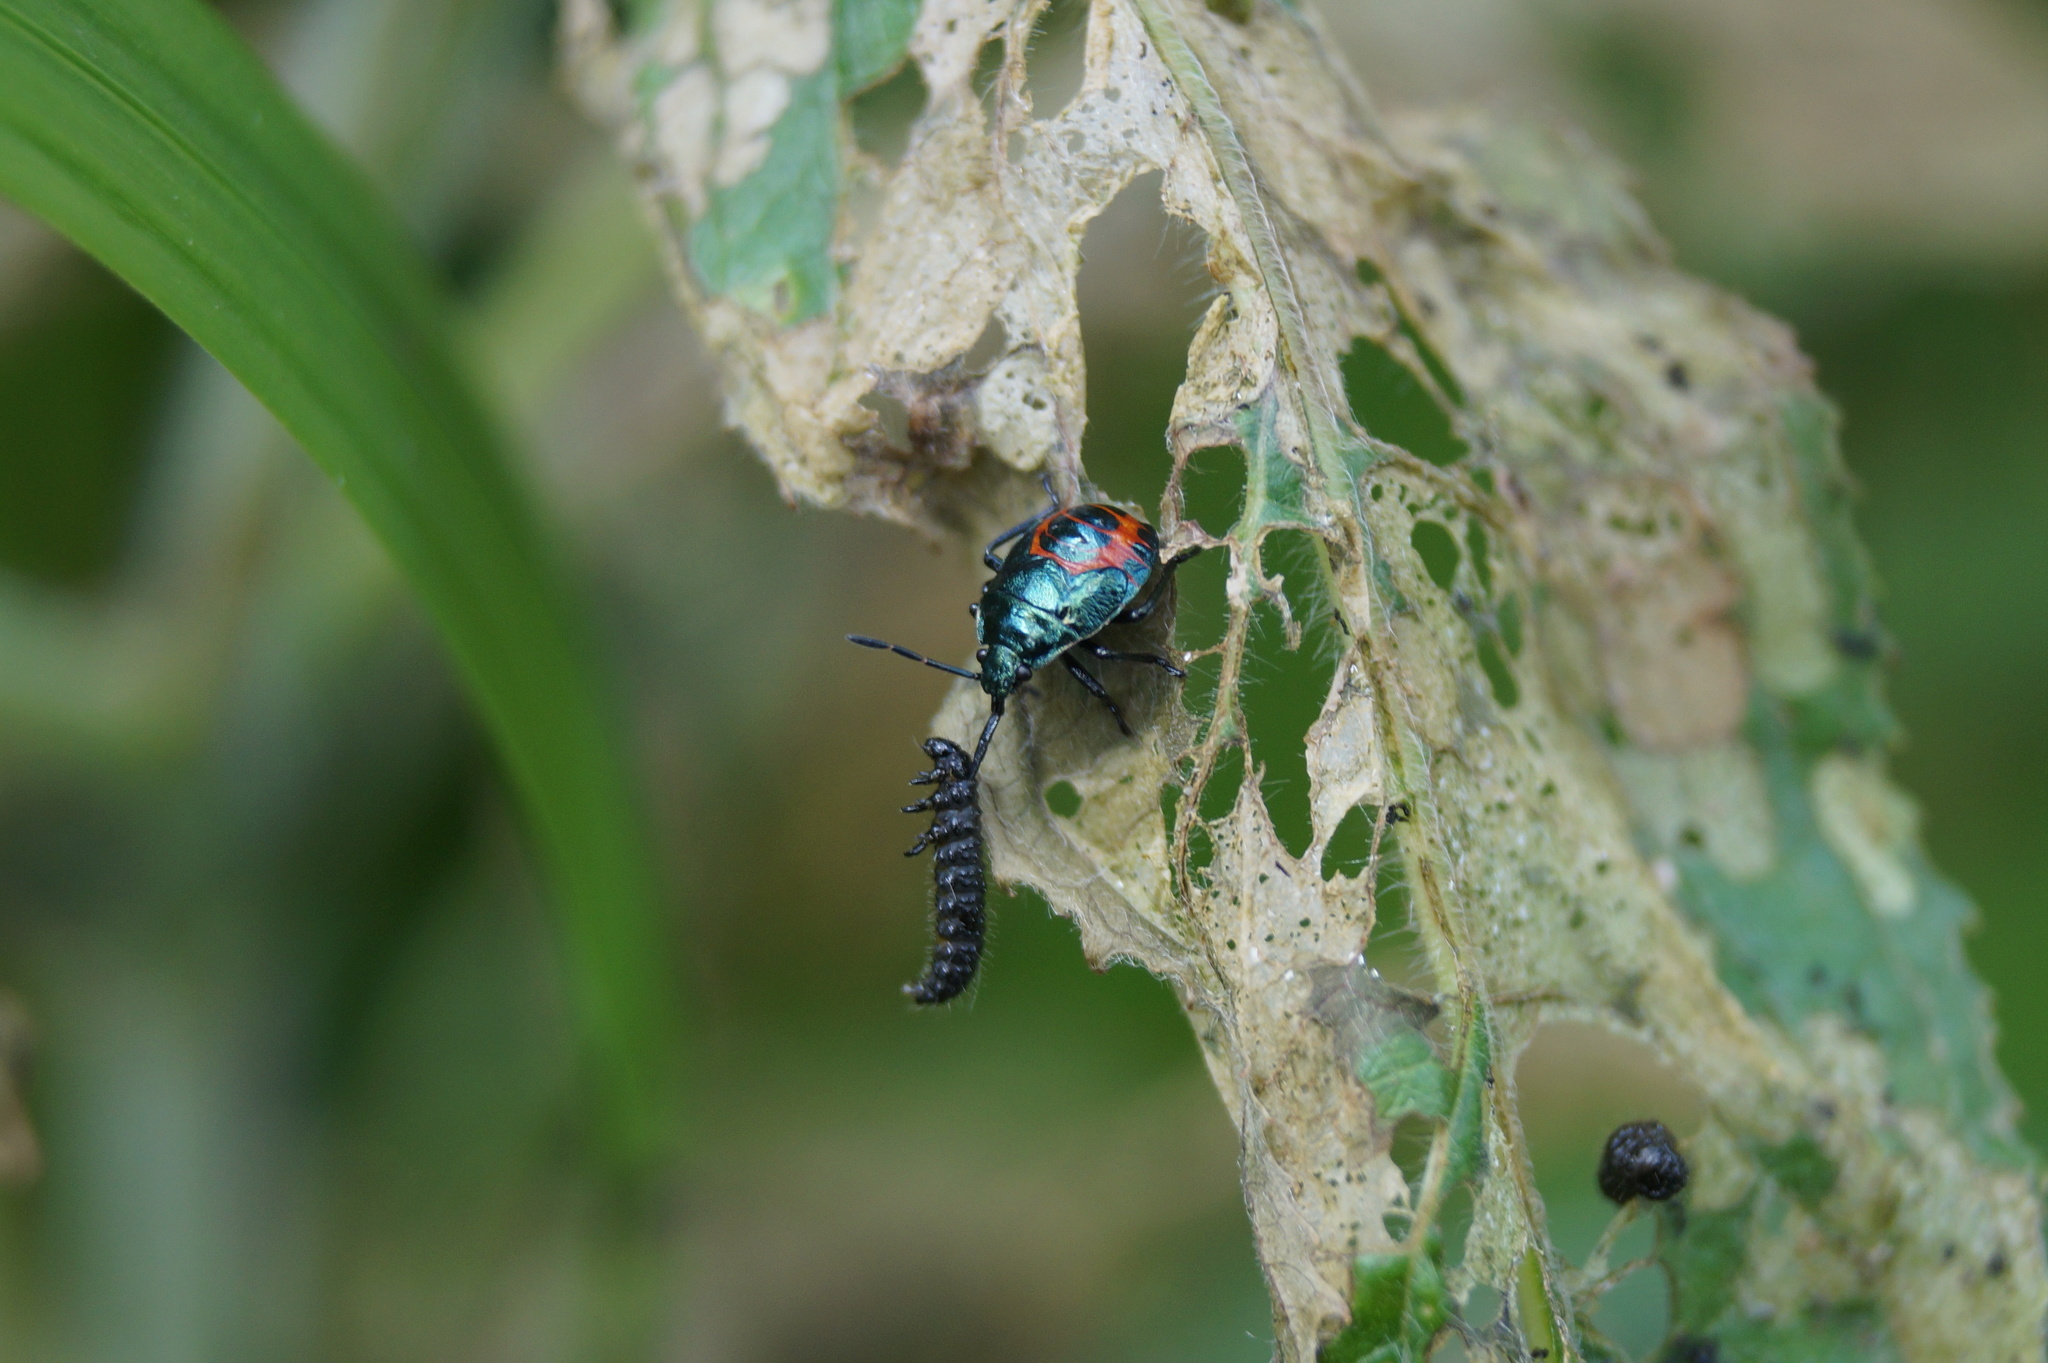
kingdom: Animalia
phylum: Arthropoda
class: Insecta
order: Hemiptera
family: Pentatomidae
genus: Zicrona
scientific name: Zicrona caerulea
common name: Blue shieldbug
